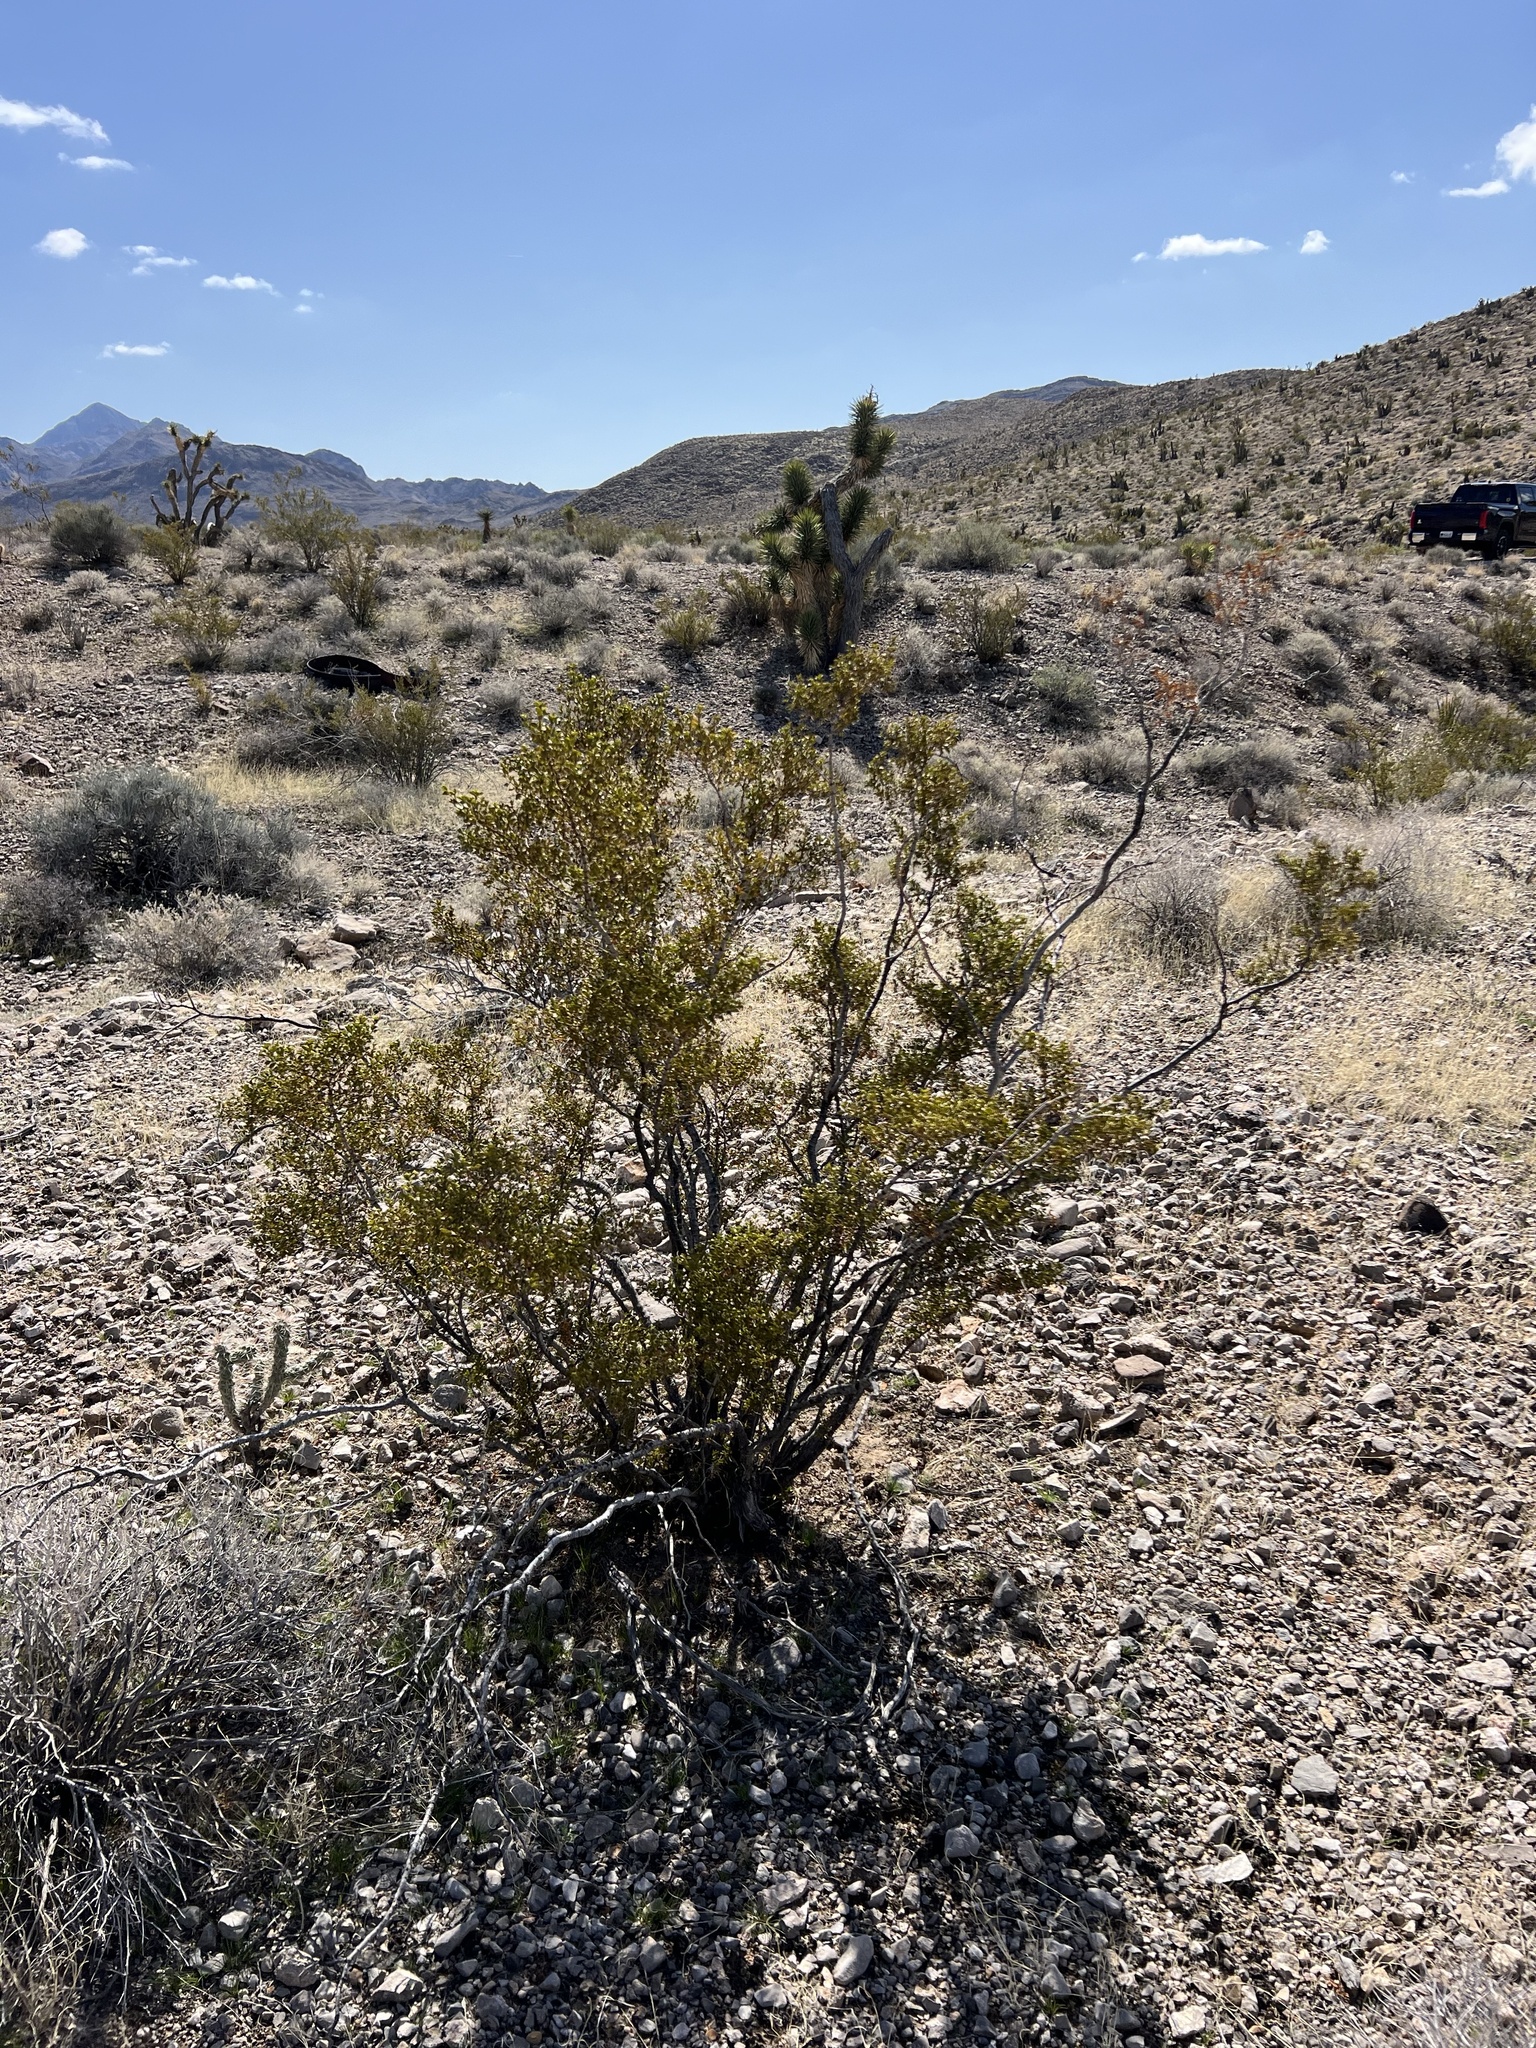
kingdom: Plantae
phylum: Tracheophyta
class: Magnoliopsida
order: Zygophyllales
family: Zygophyllaceae
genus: Larrea
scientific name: Larrea tridentata
